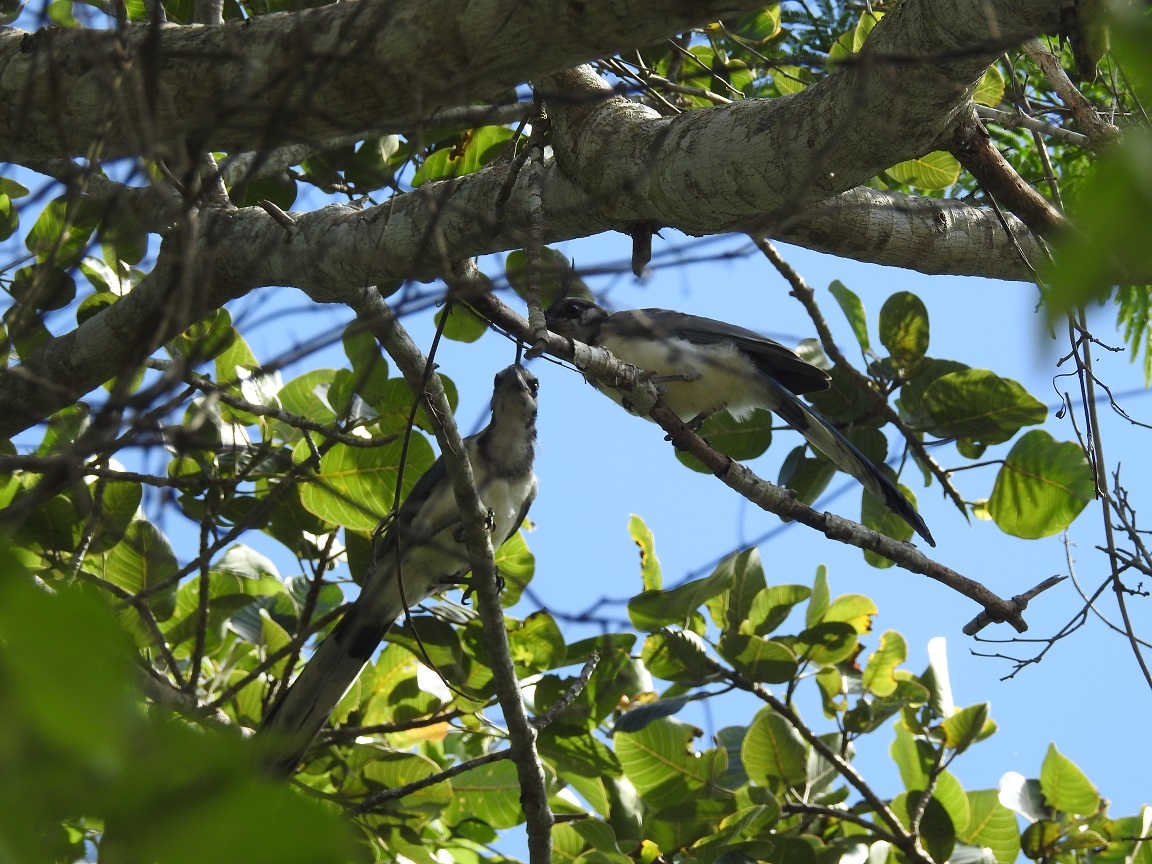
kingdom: Animalia
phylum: Chordata
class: Aves
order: Passeriformes
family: Corvidae
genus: Calocitta
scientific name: Calocitta formosa
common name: White-throated magpie-jay
